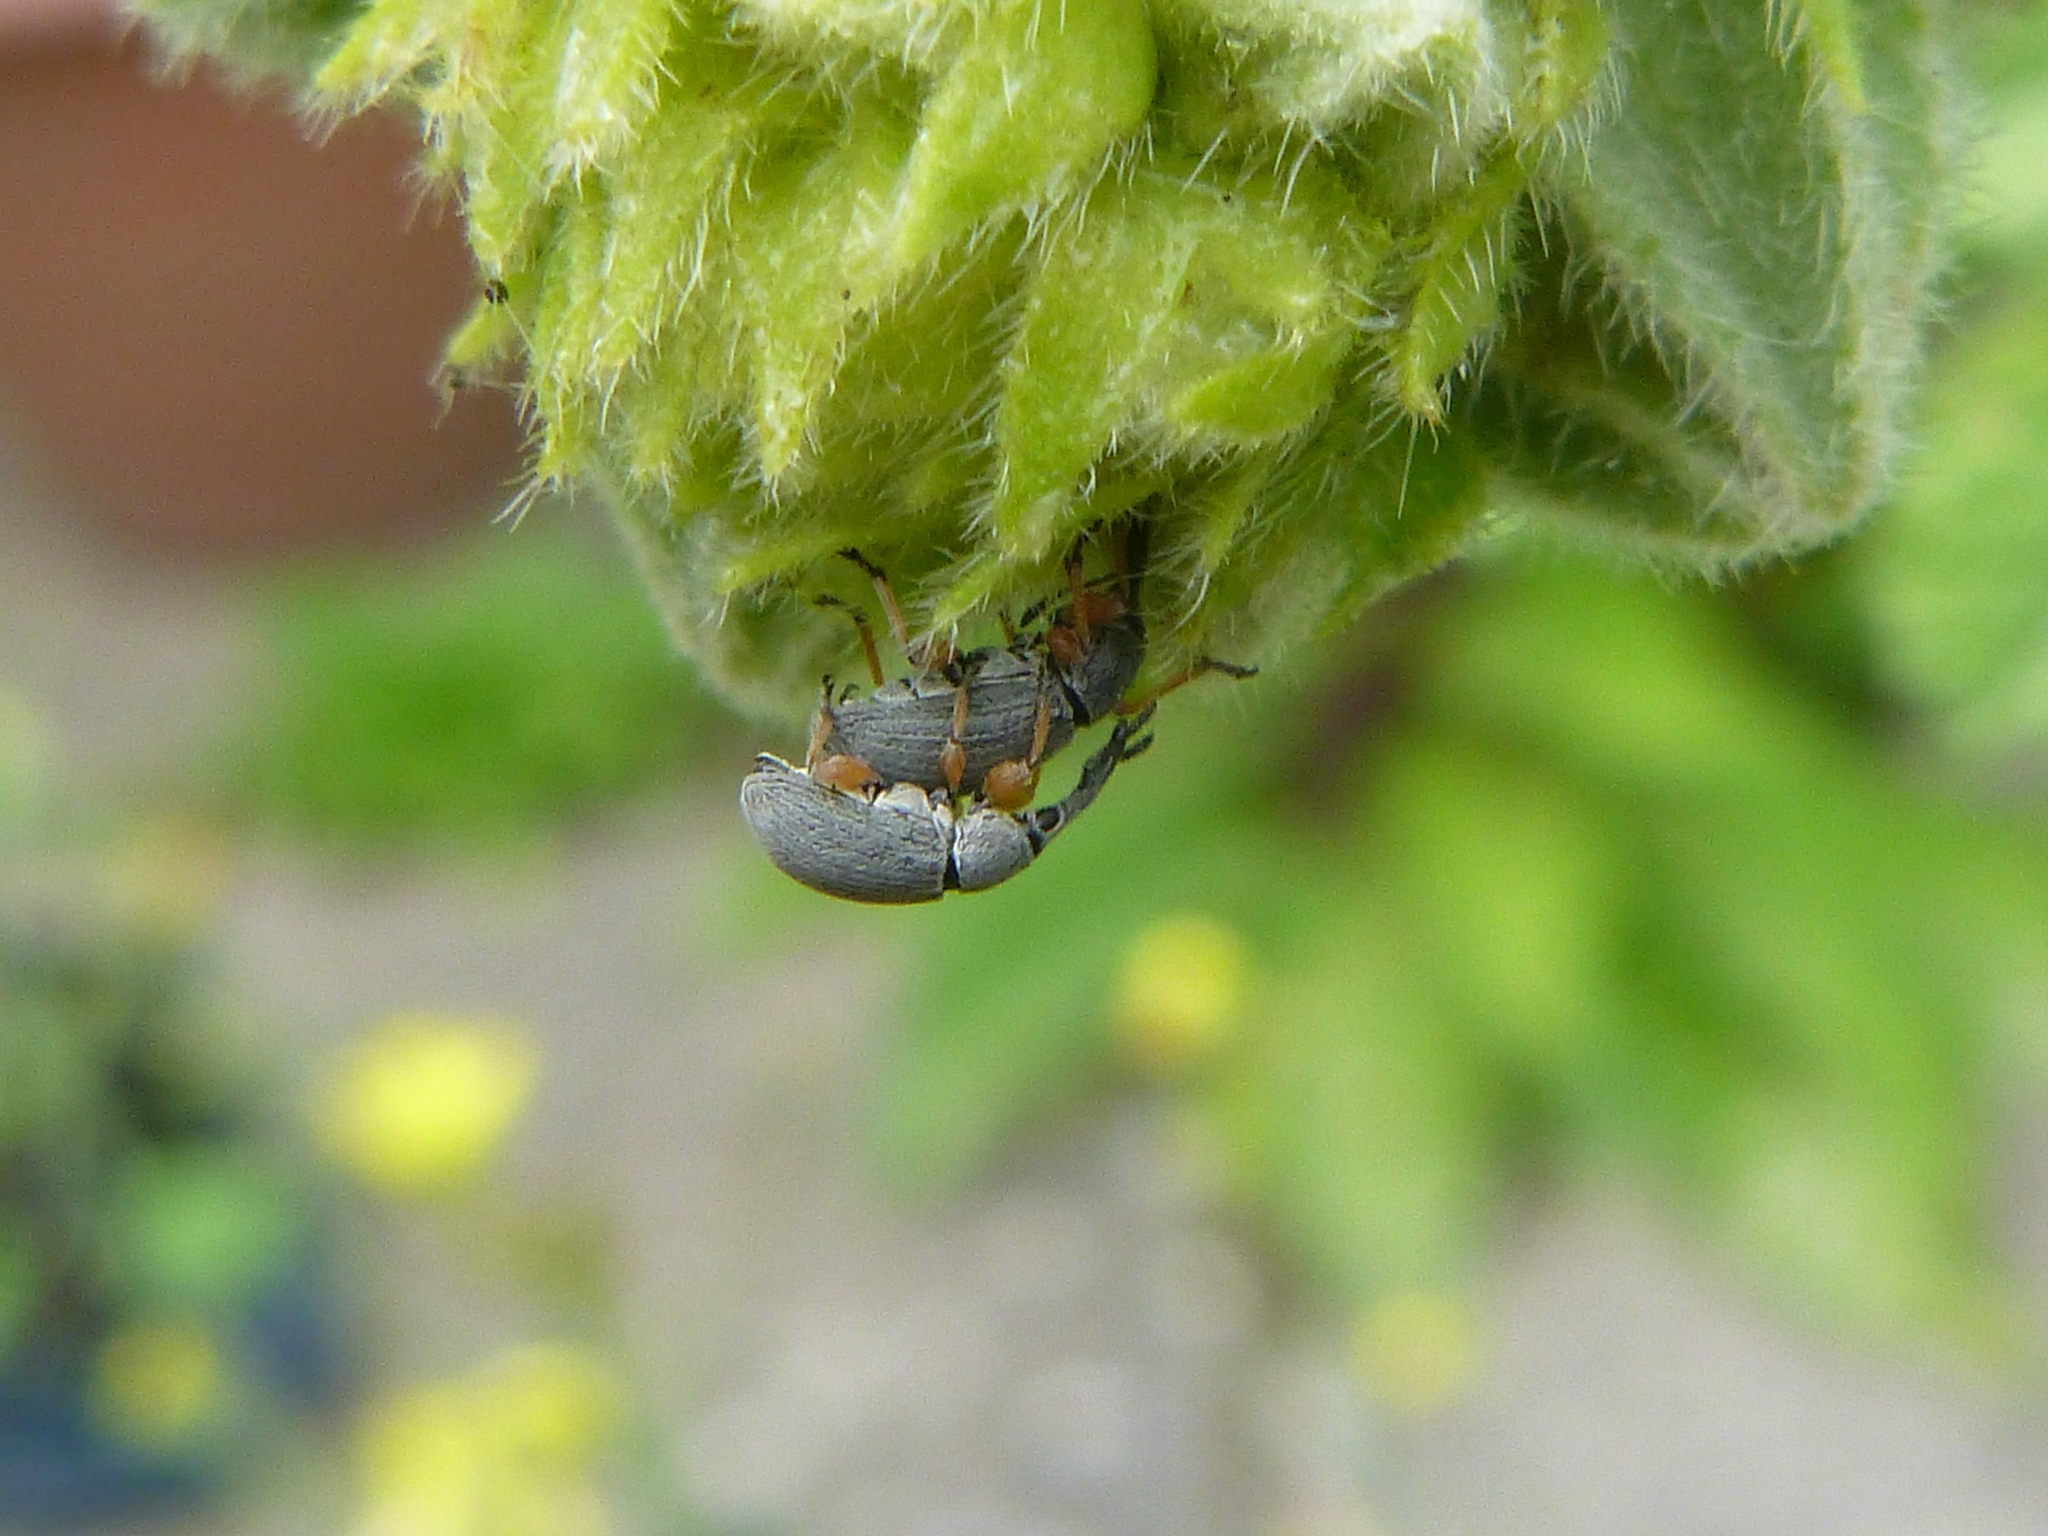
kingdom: Animalia
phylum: Arthropoda
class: Insecta
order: Coleoptera
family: Brentidae
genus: Rhopalapion
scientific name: Rhopalapion longirostre
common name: Hollyhock weevil
